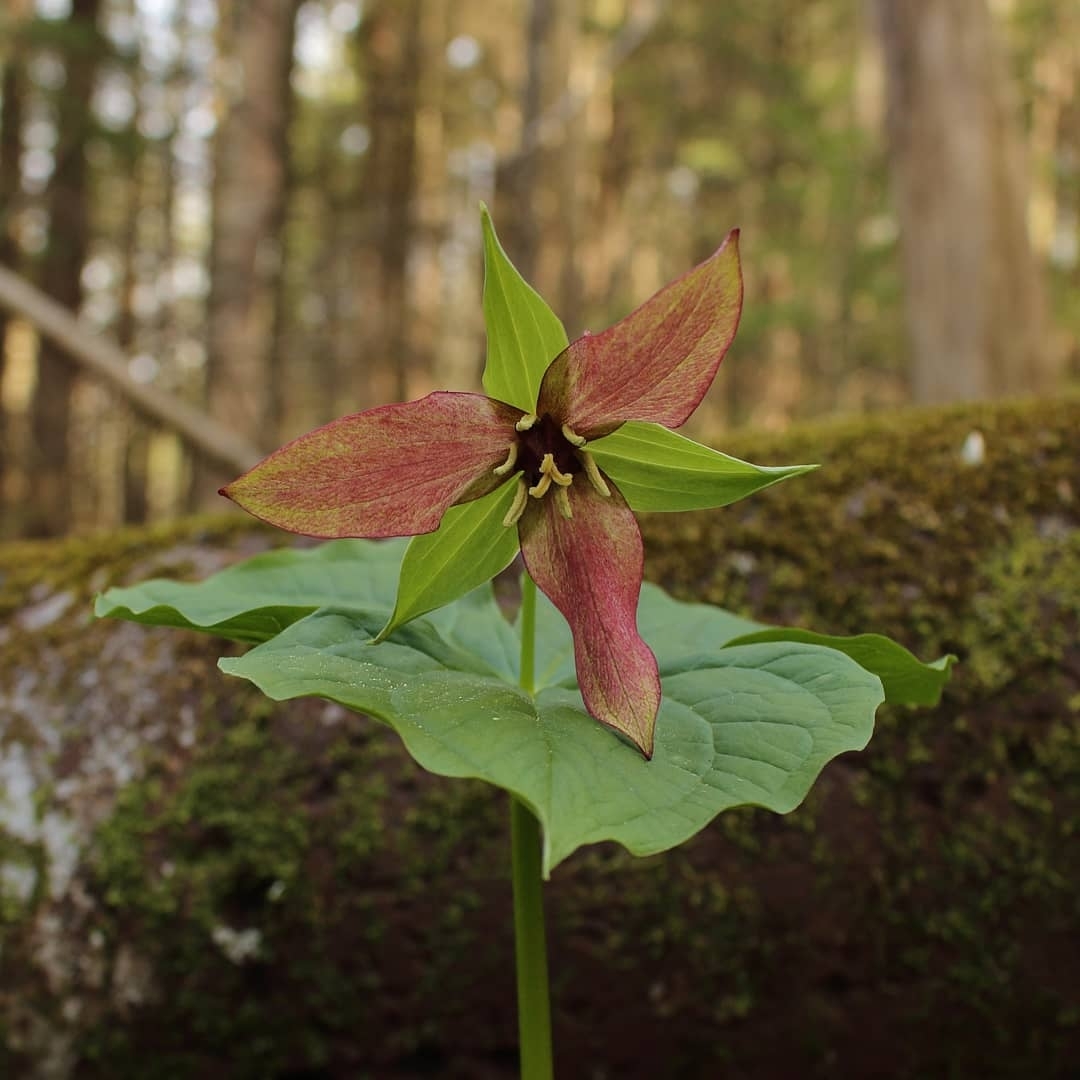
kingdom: Plantae
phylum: Tracheophyta
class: Liliopsida
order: Liliales
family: Melanthiaceae
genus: Trillium
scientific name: Trillium erectum
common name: Purple trillium
